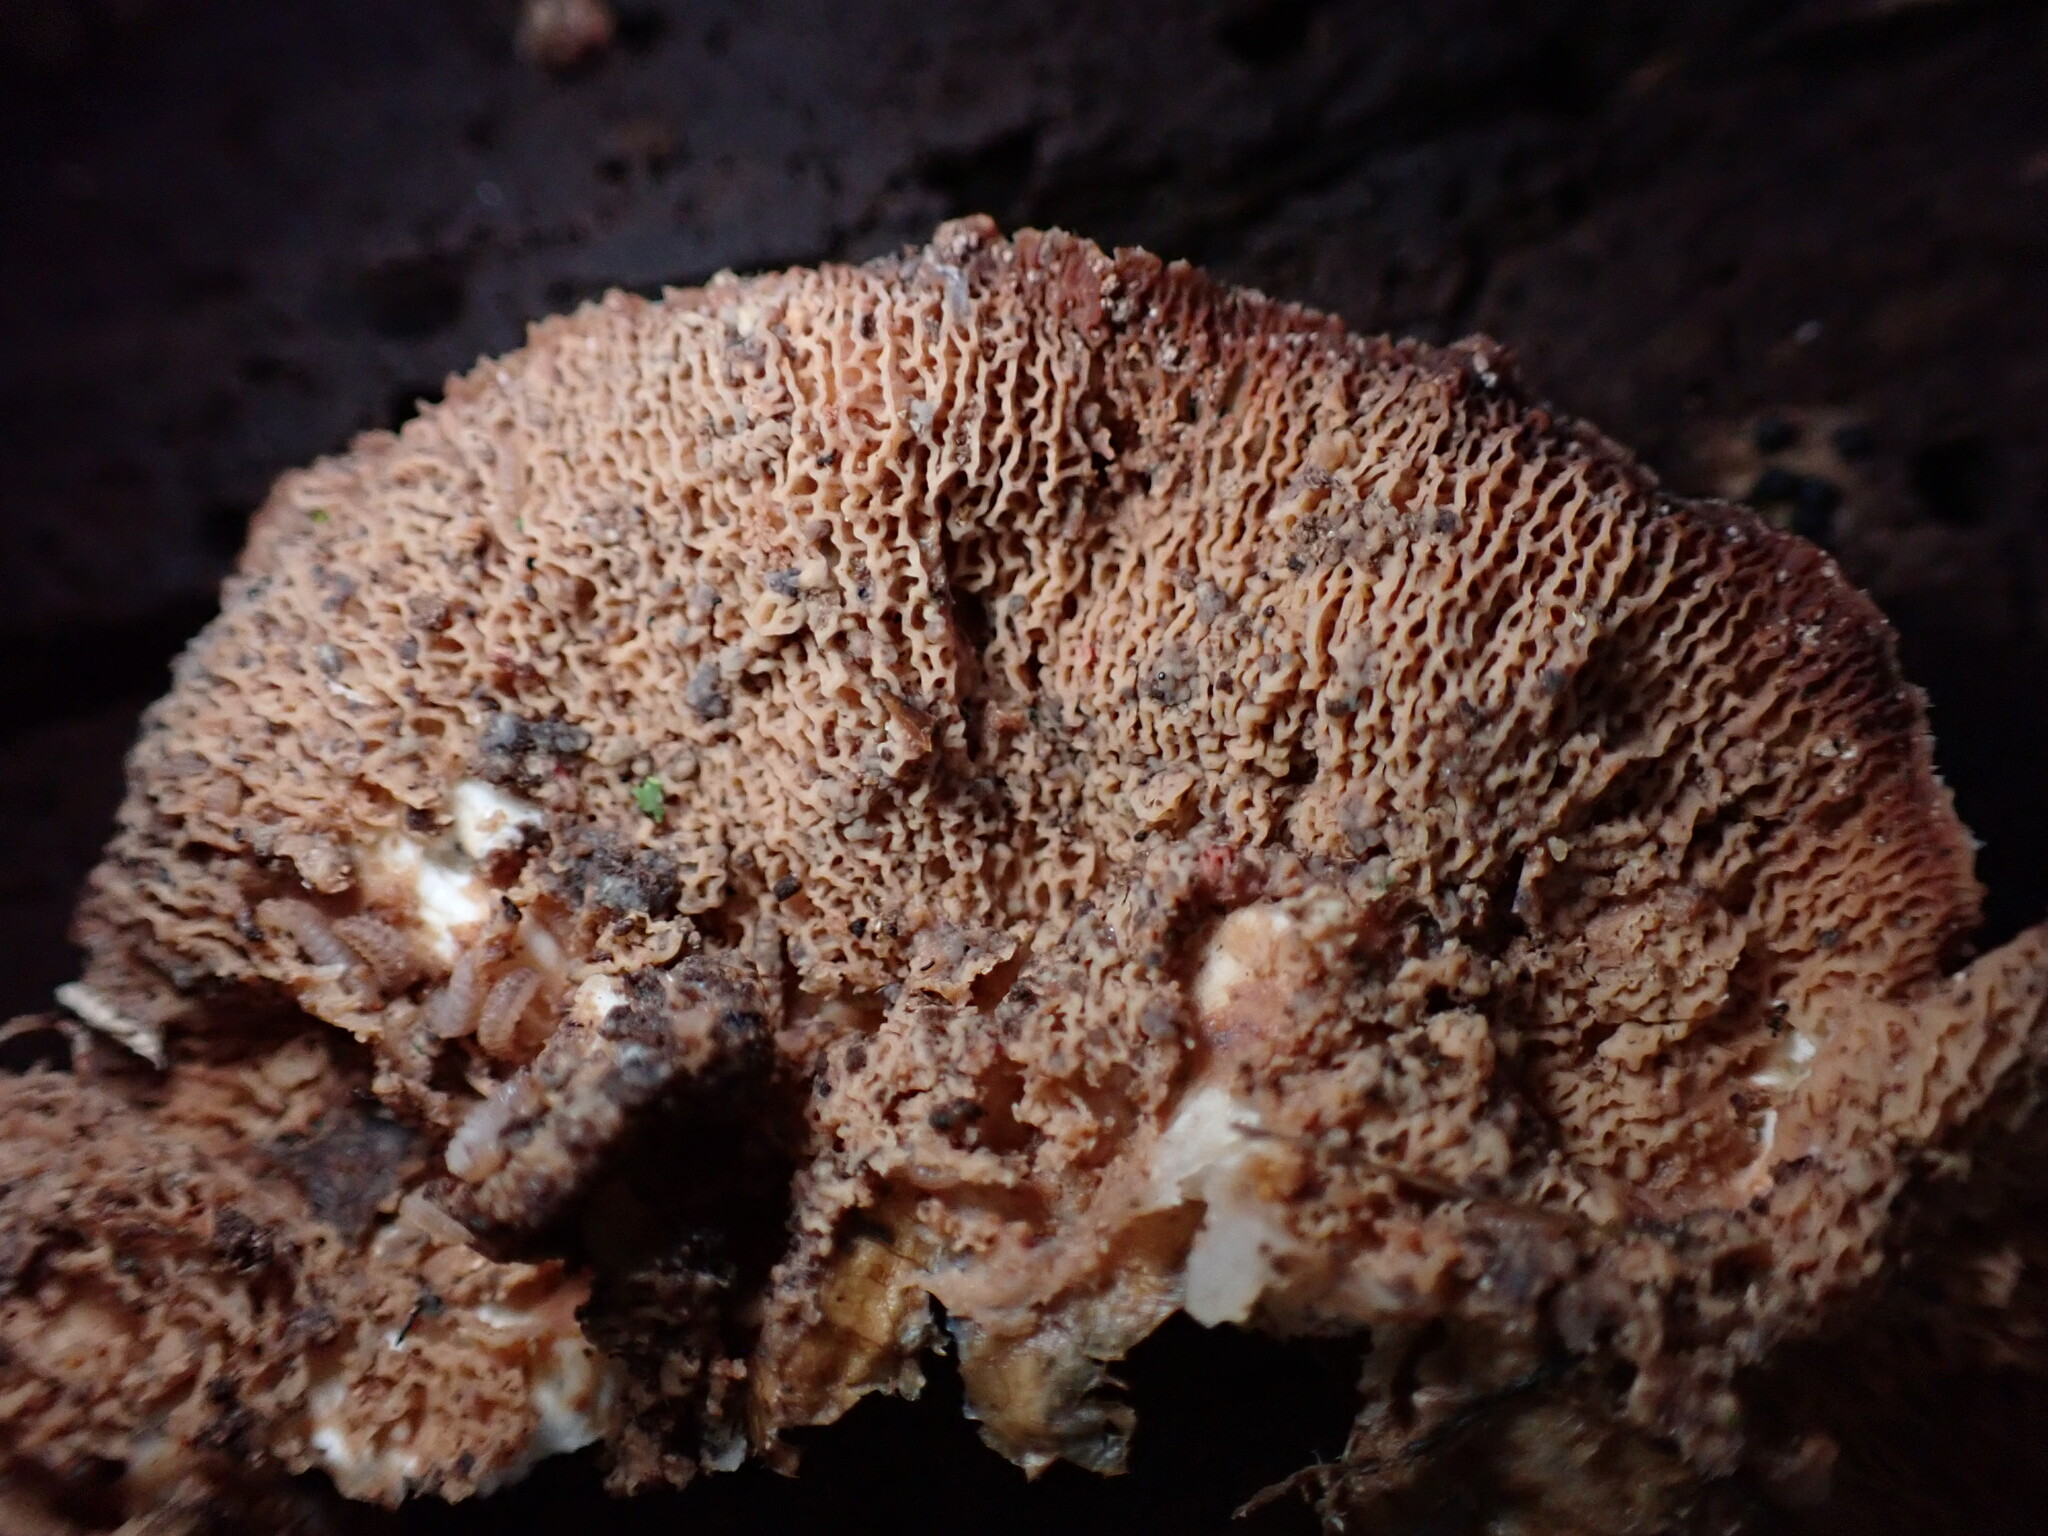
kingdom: Fungi
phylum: Basidiomycota
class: Agaricomycetes
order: Polyporales
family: Meruliaceae
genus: Phlebia
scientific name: Phlebia tremellosa
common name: Jelly rot
